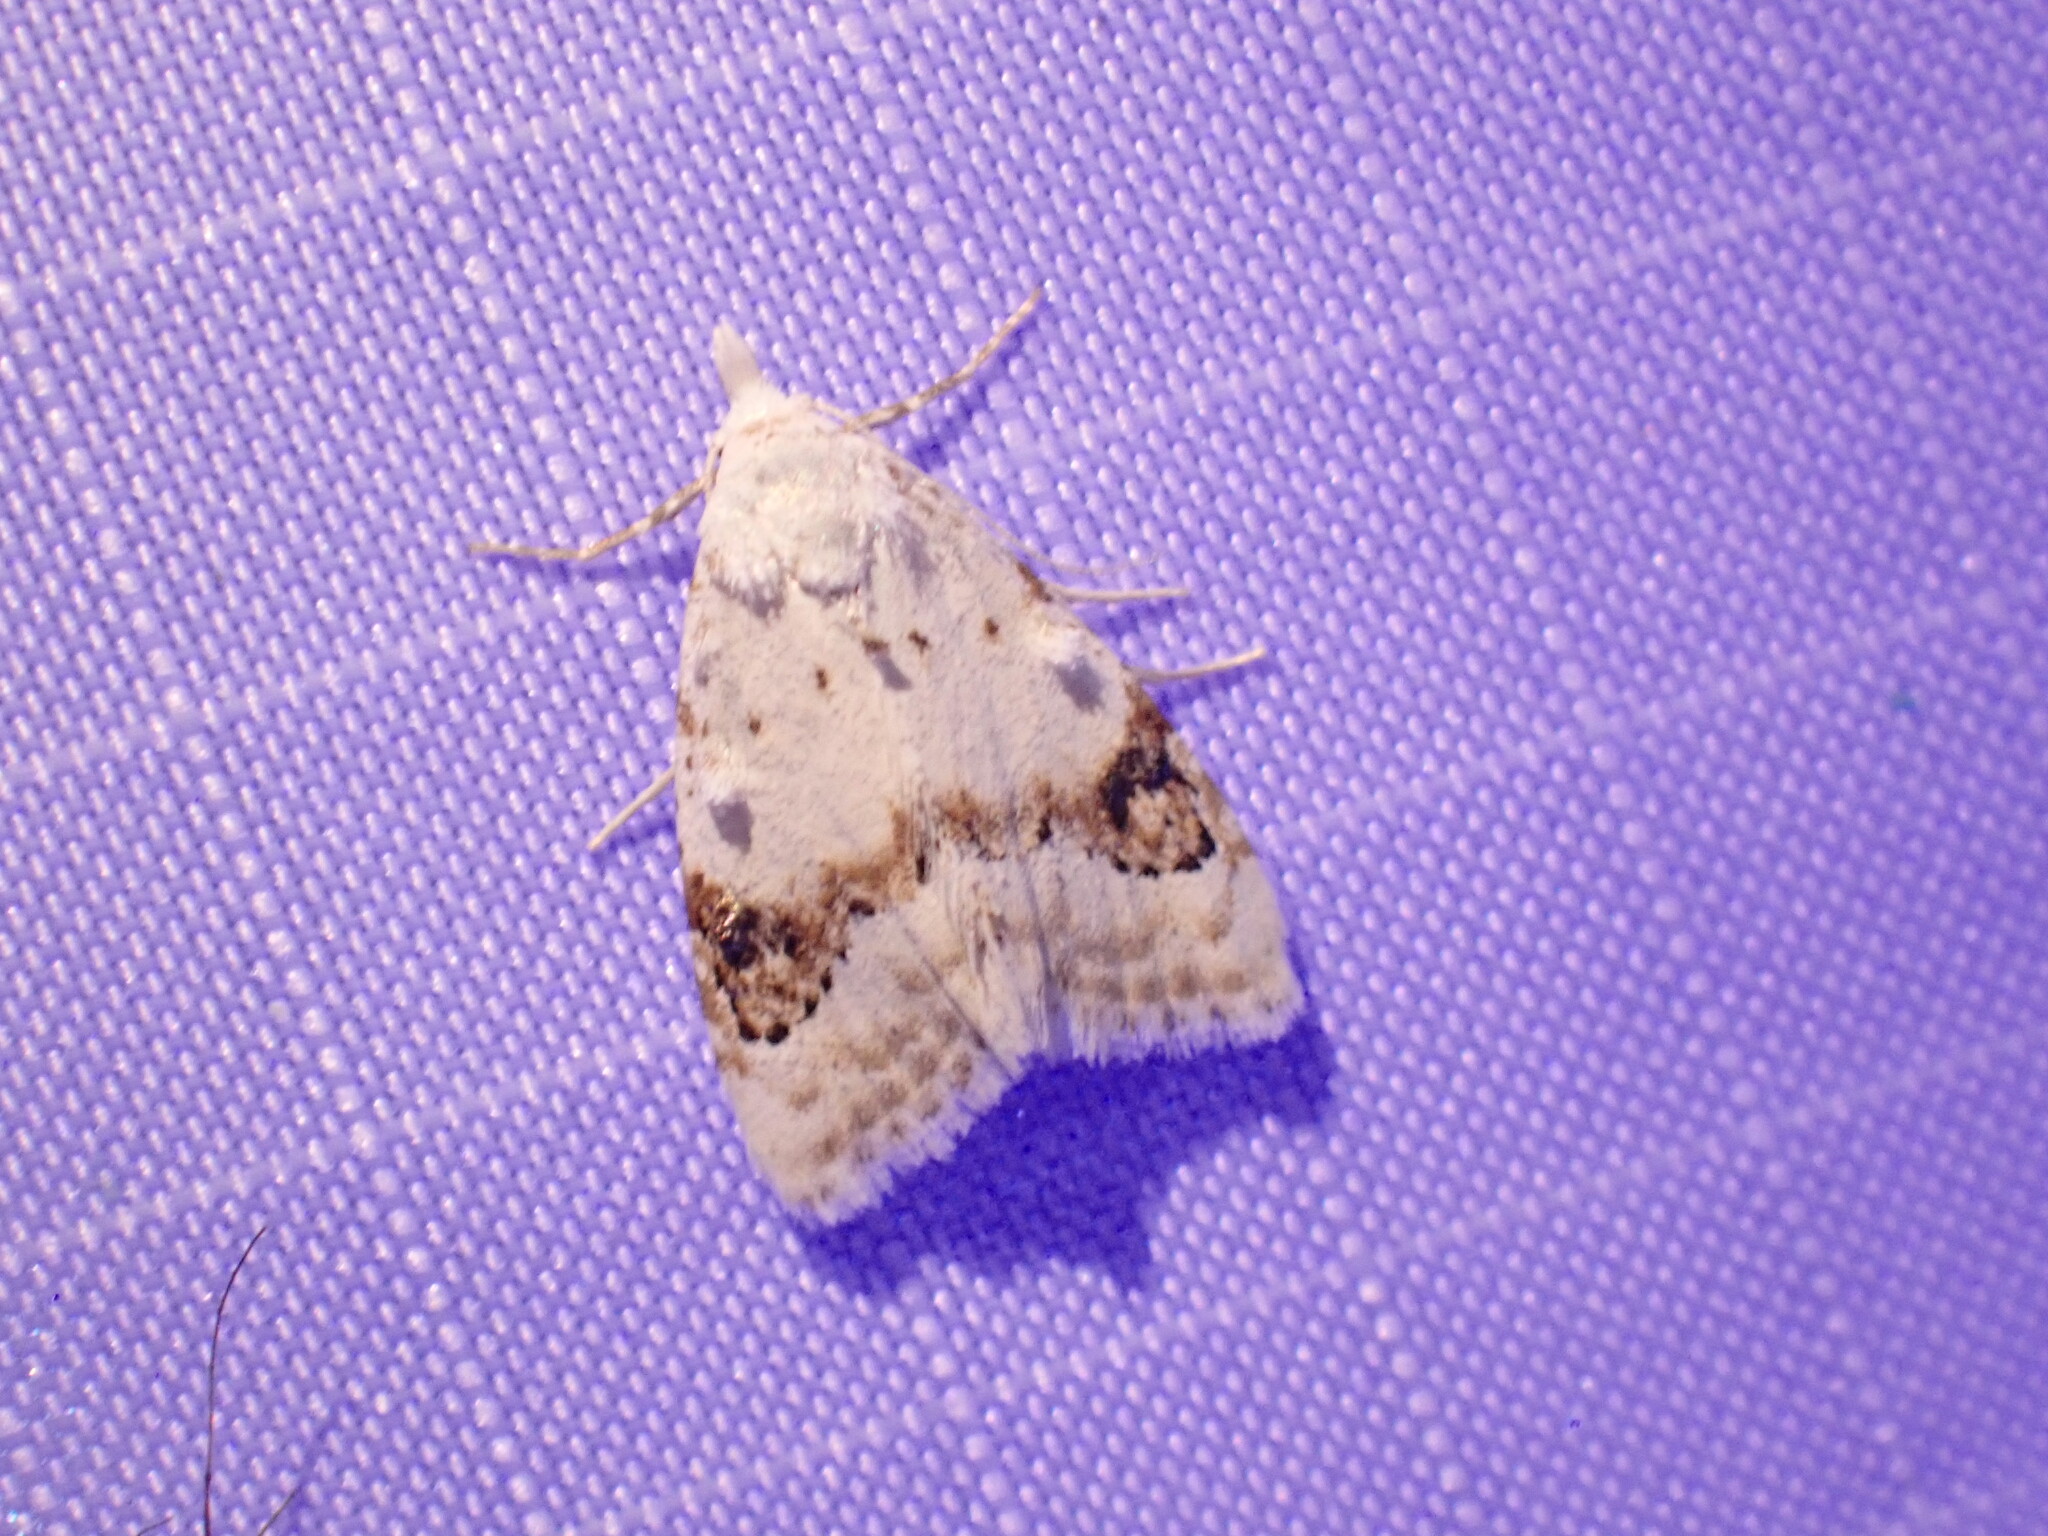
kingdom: Animalia
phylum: Arthropoda
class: Insecta
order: Lepidoptera
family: Nolidae
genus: Nola
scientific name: Nola cilicoides
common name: Blurry-patched nola moth
